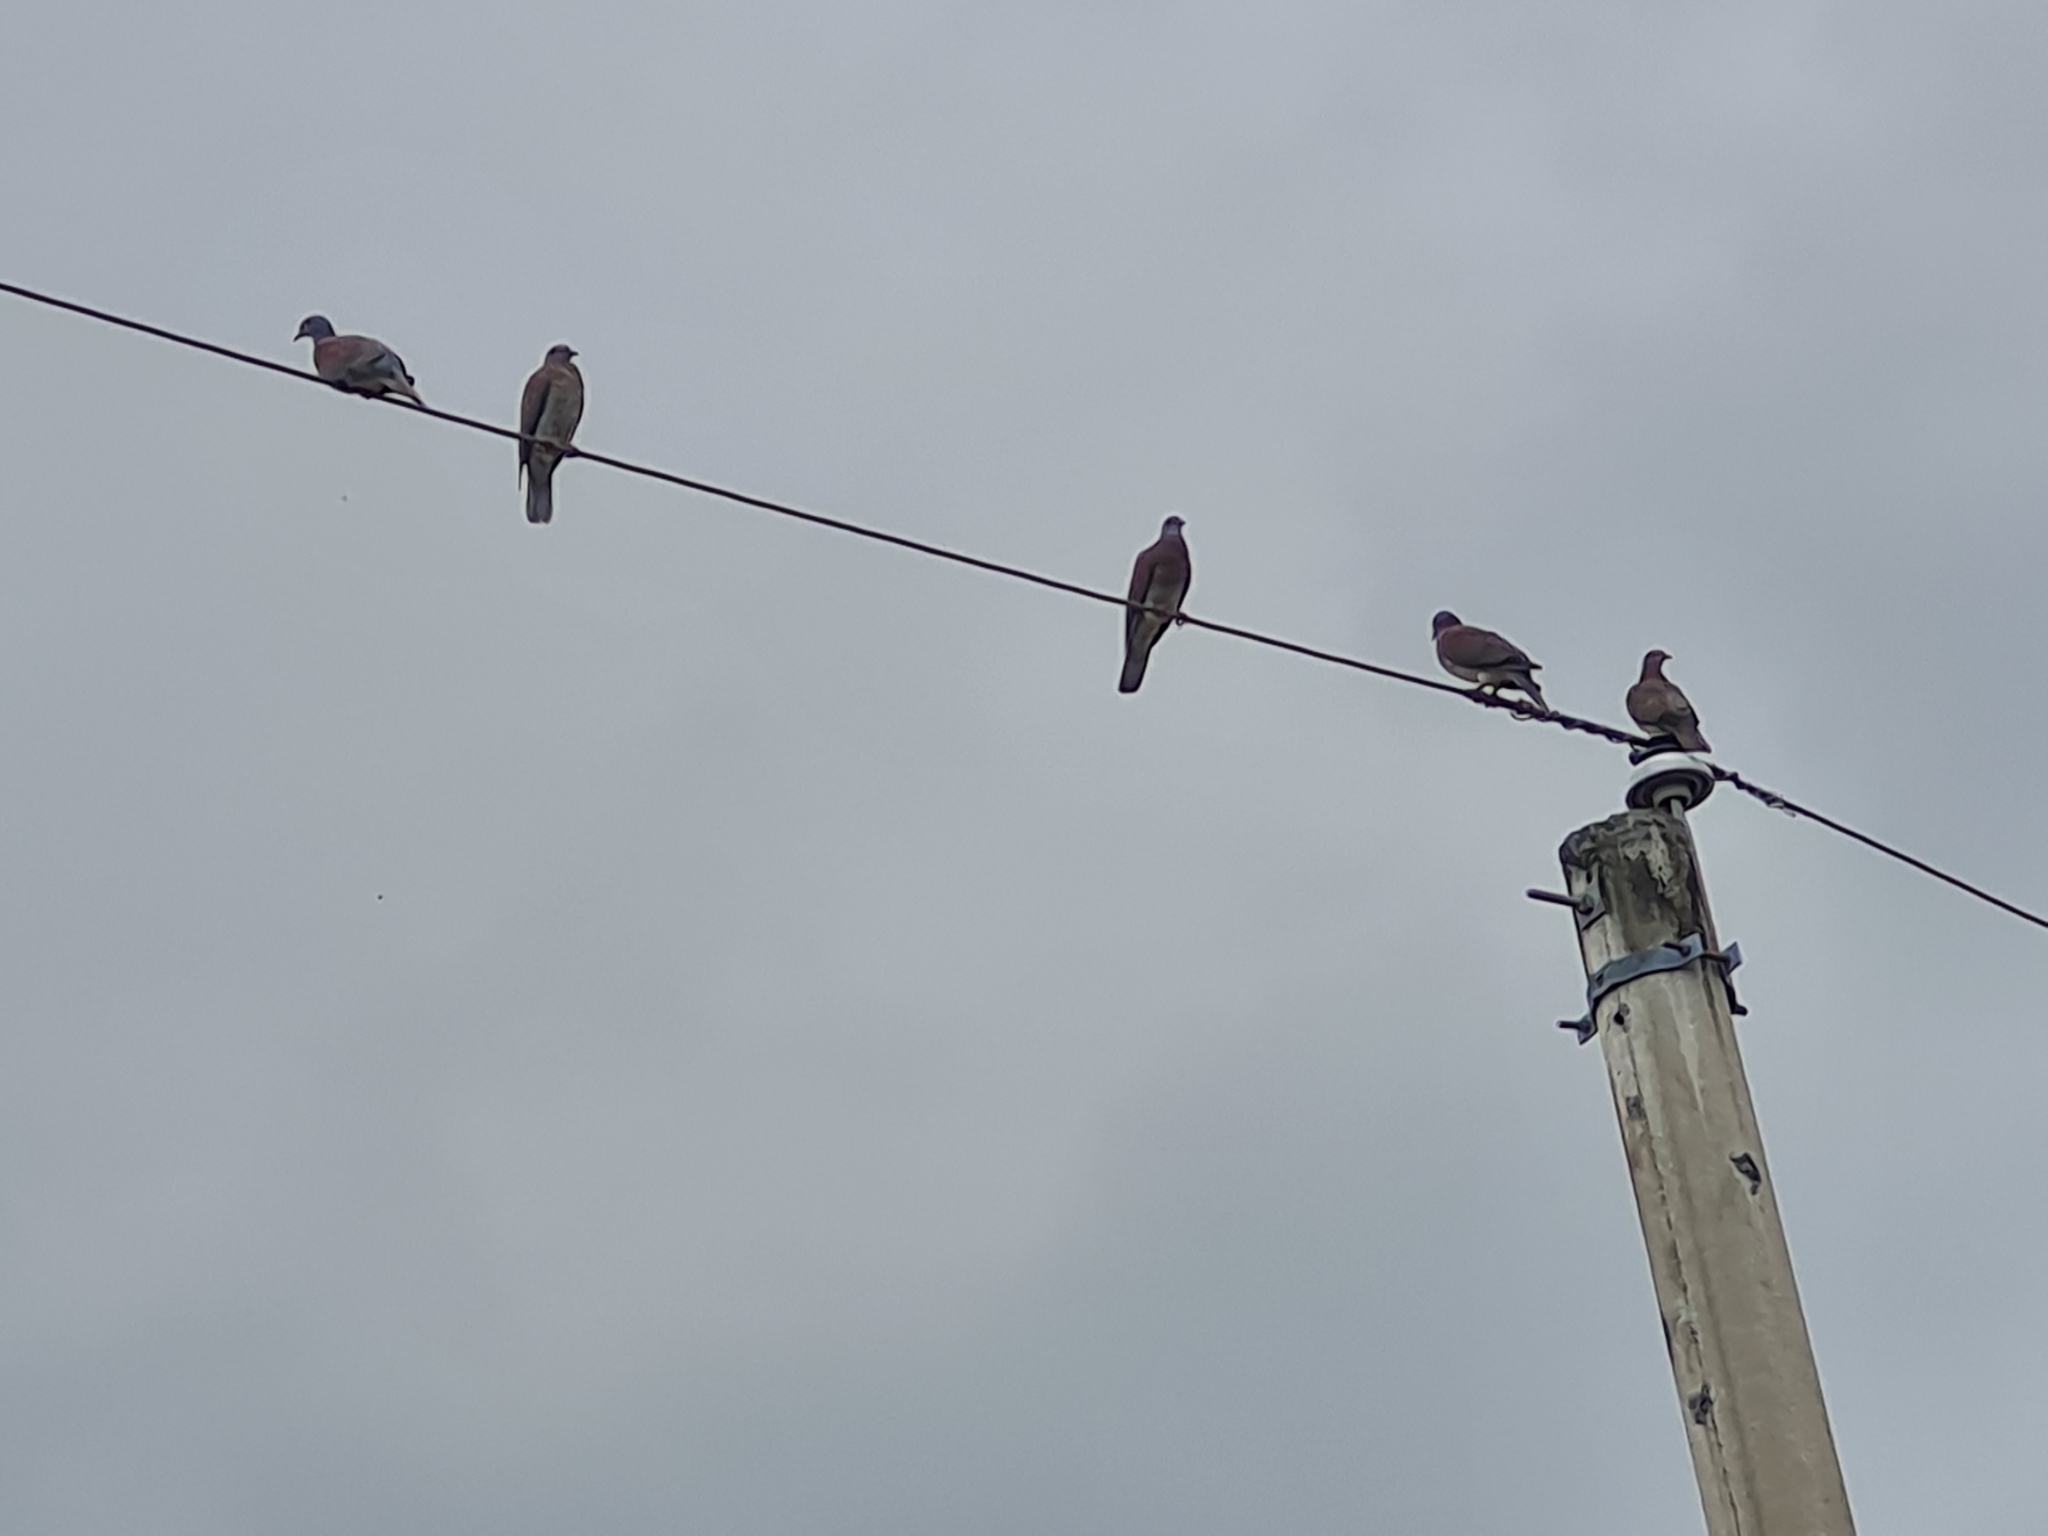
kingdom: Animalia
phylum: Chordata
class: Aves
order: Columbiformes
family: Columbidae
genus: Patagioenas
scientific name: Patagioenas cayennensis
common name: Pale-vented pigeon
